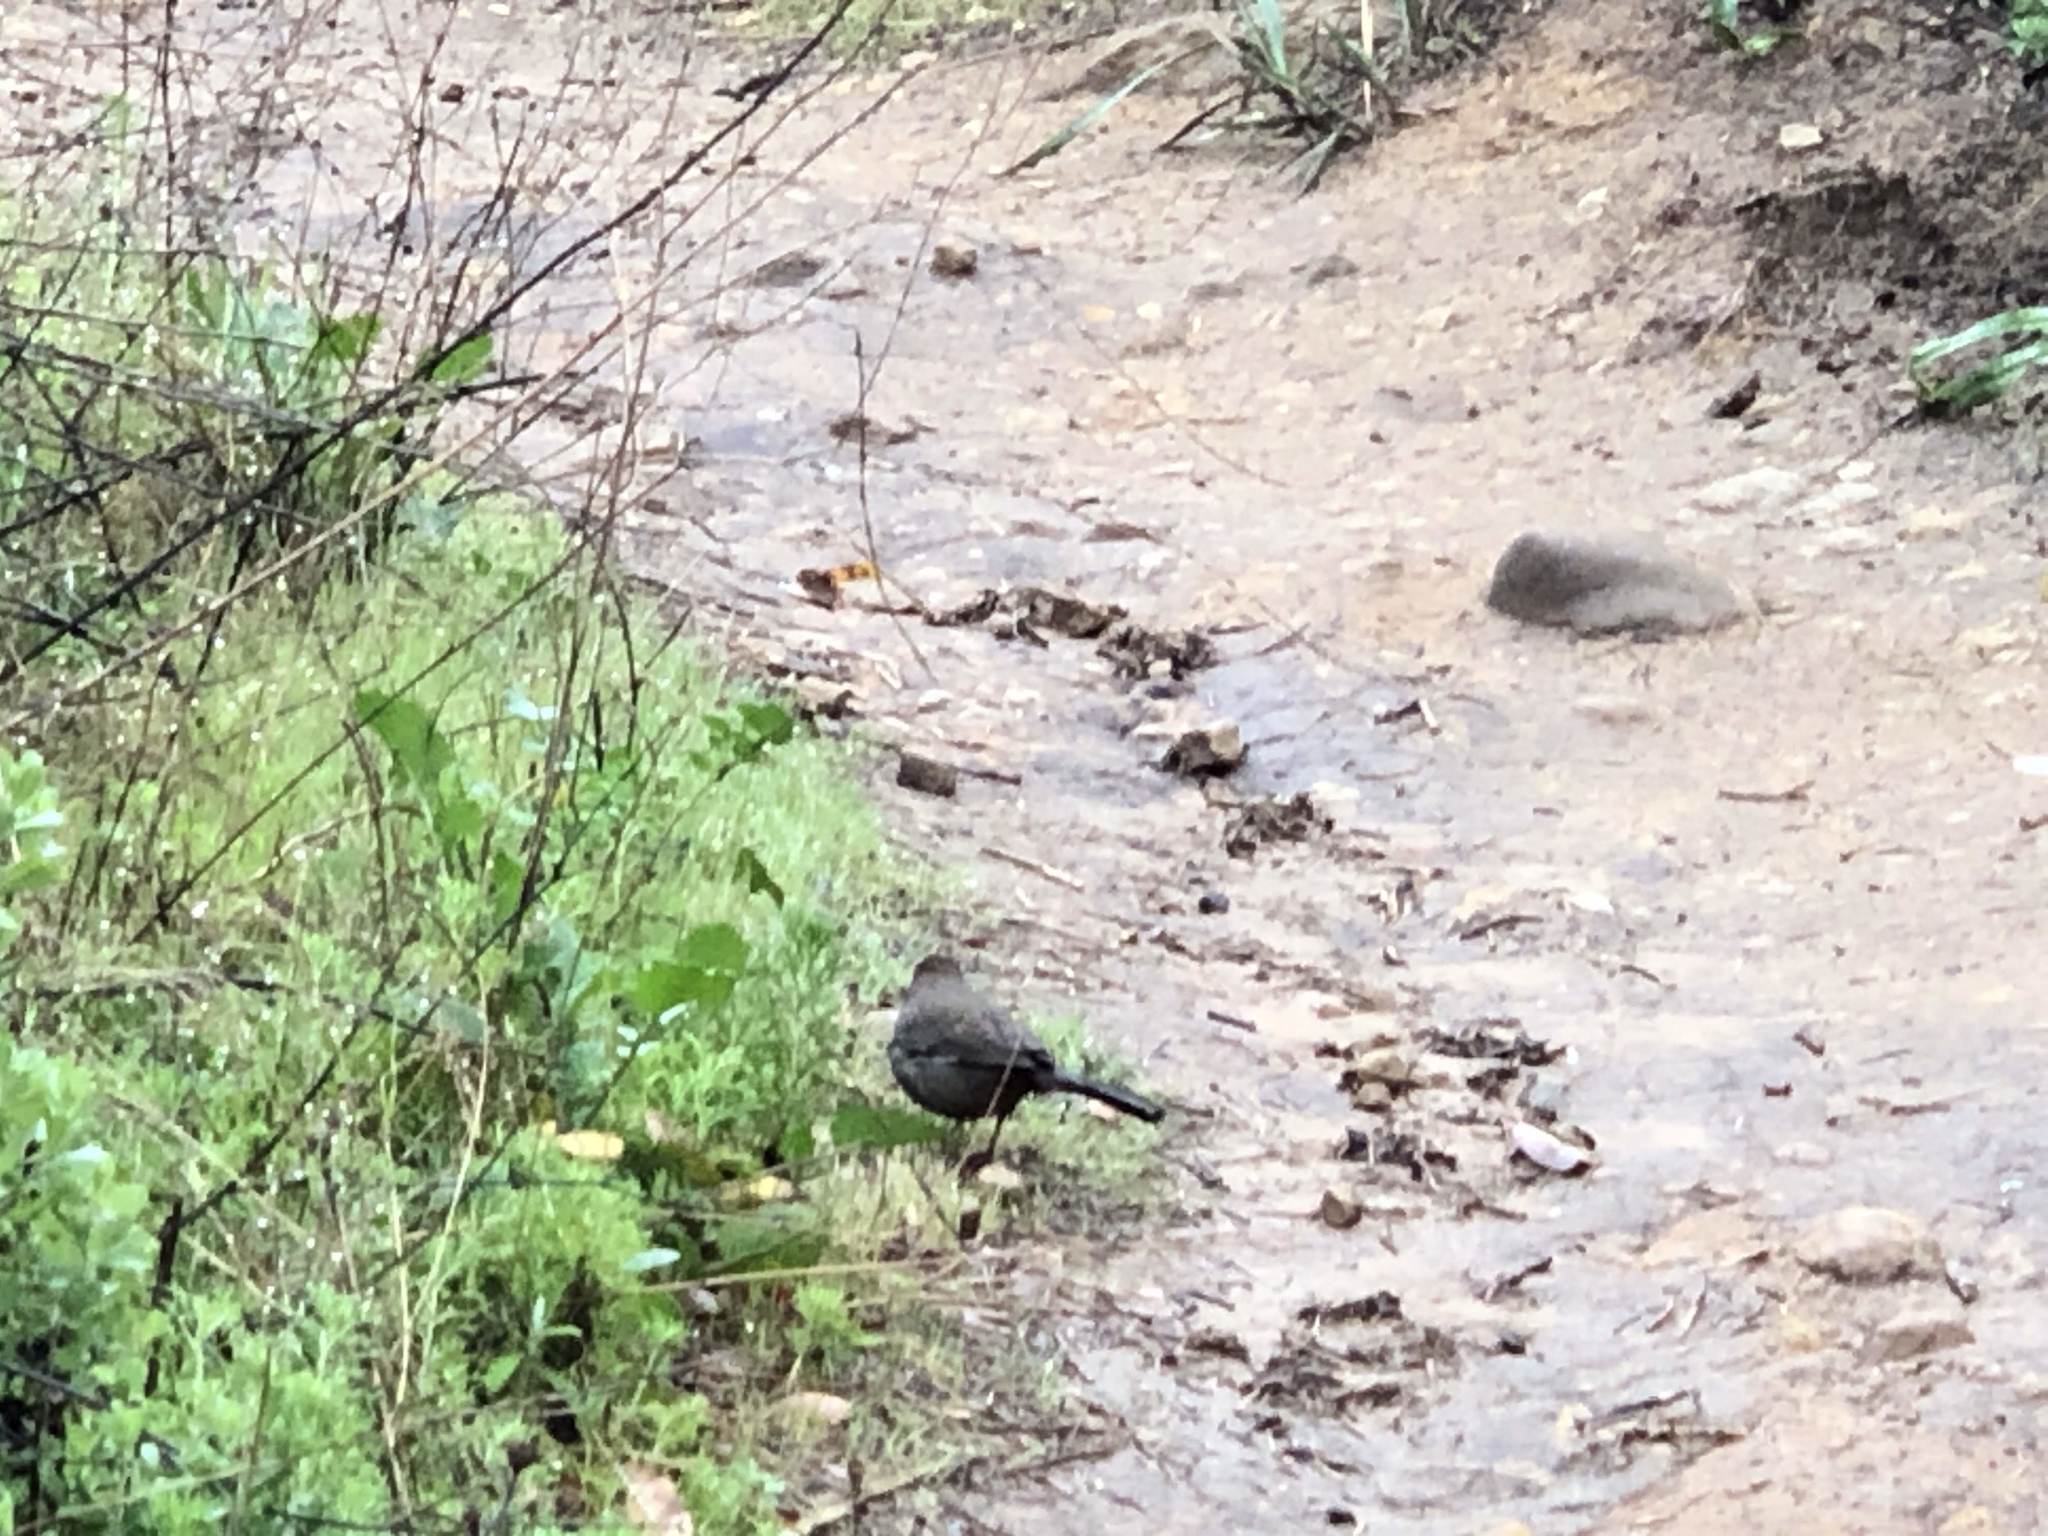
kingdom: Animalia
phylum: Chordata
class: Aves
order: Passeriformes
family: Passerellidae
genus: Melozone
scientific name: Melozone crissalis
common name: California towhee
